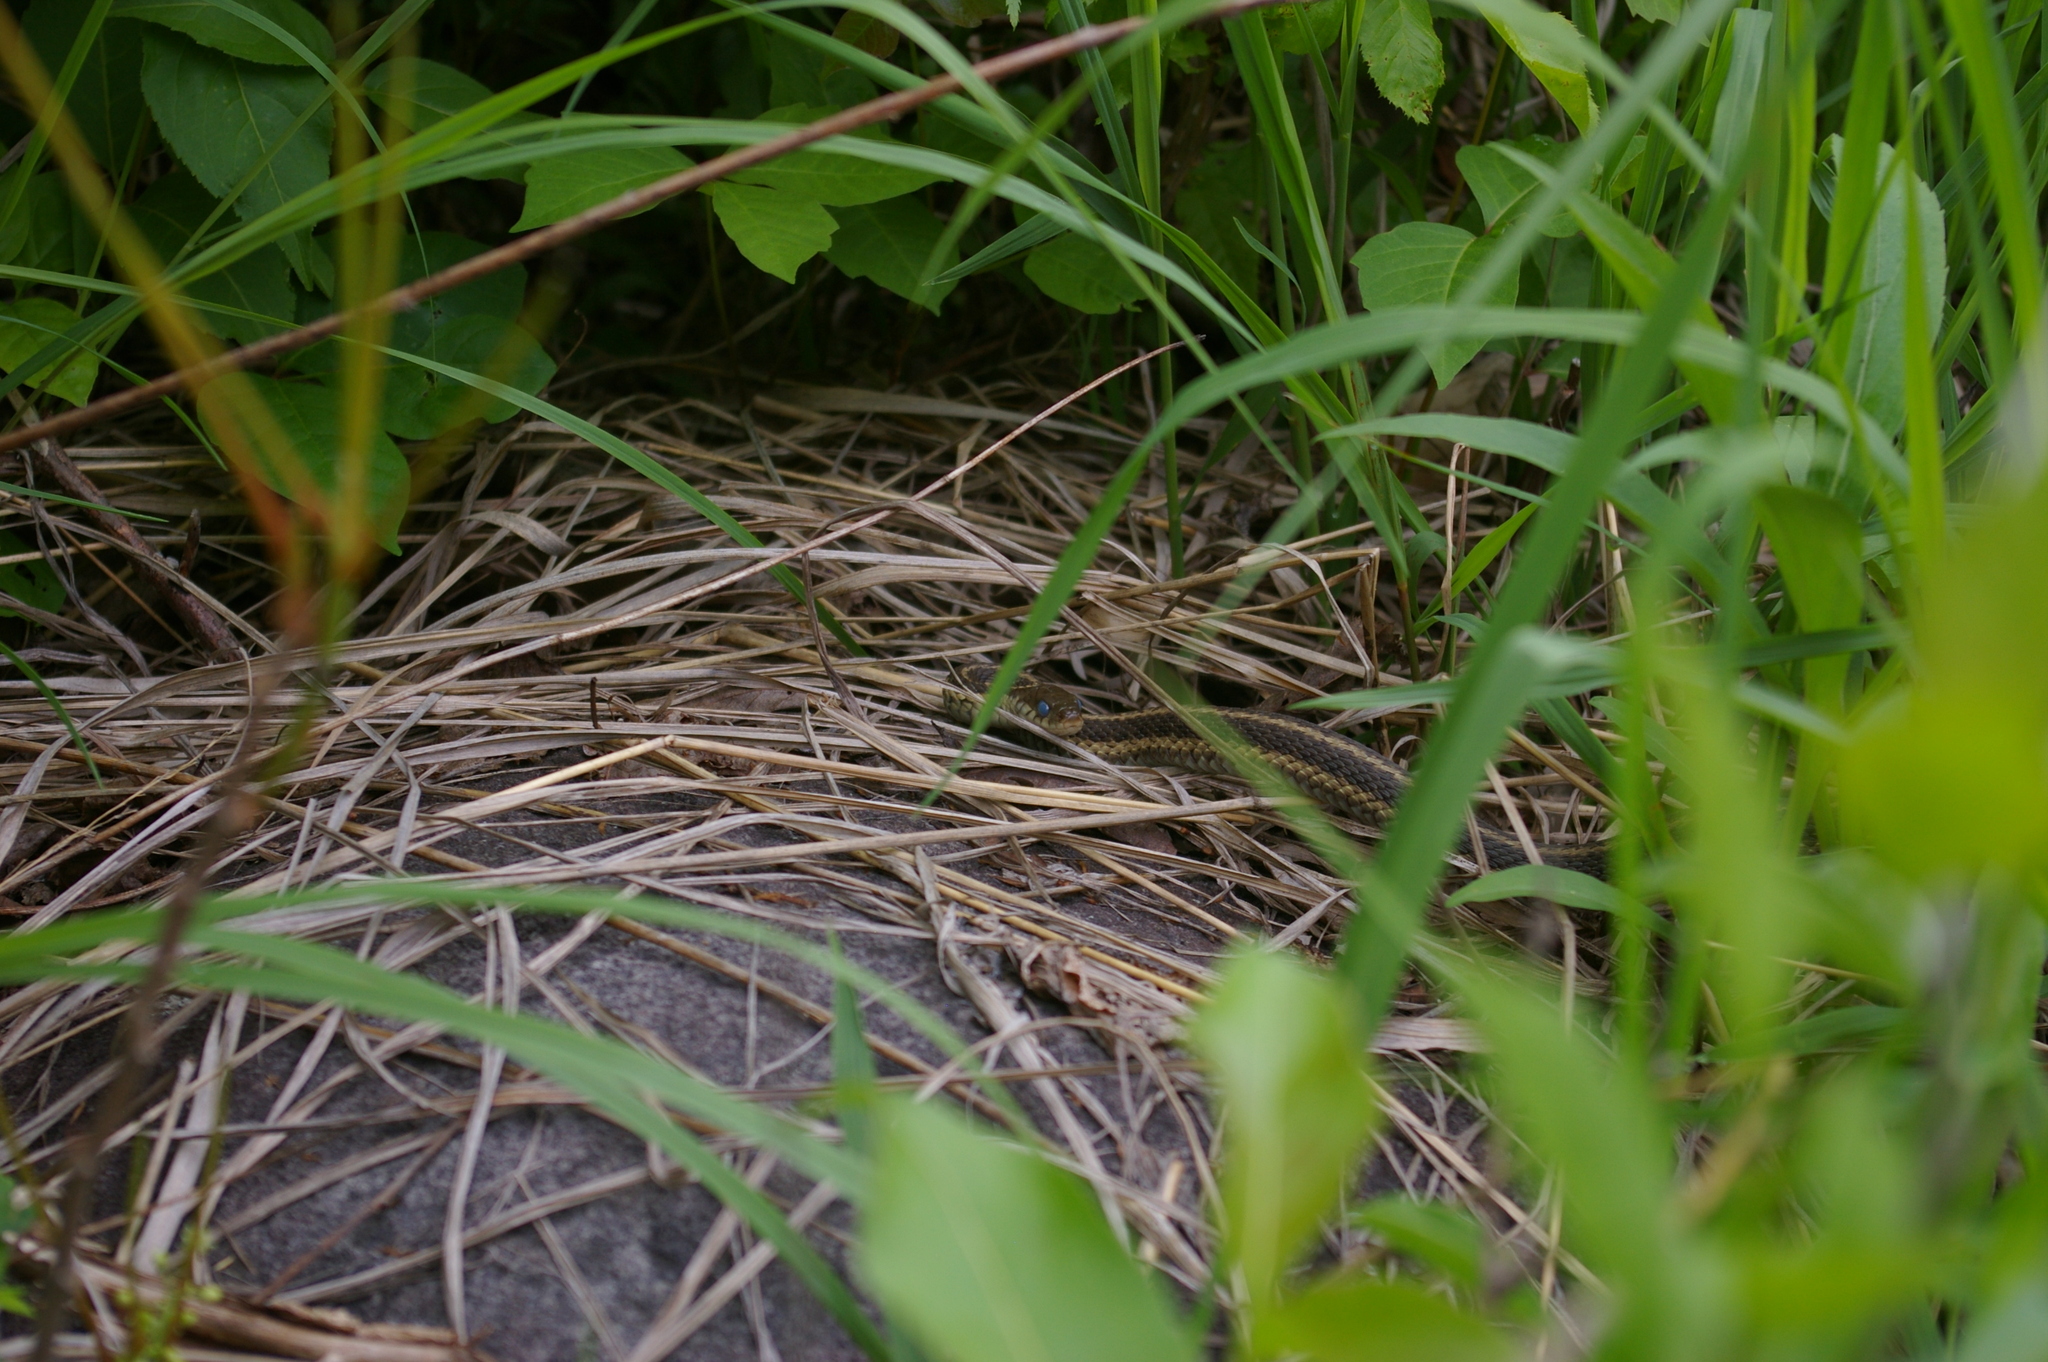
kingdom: Animalia
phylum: Chordata
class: Squamata
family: Colubridae
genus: Thamnophis
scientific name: Thamnophis sirtalis
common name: Common garter snake
